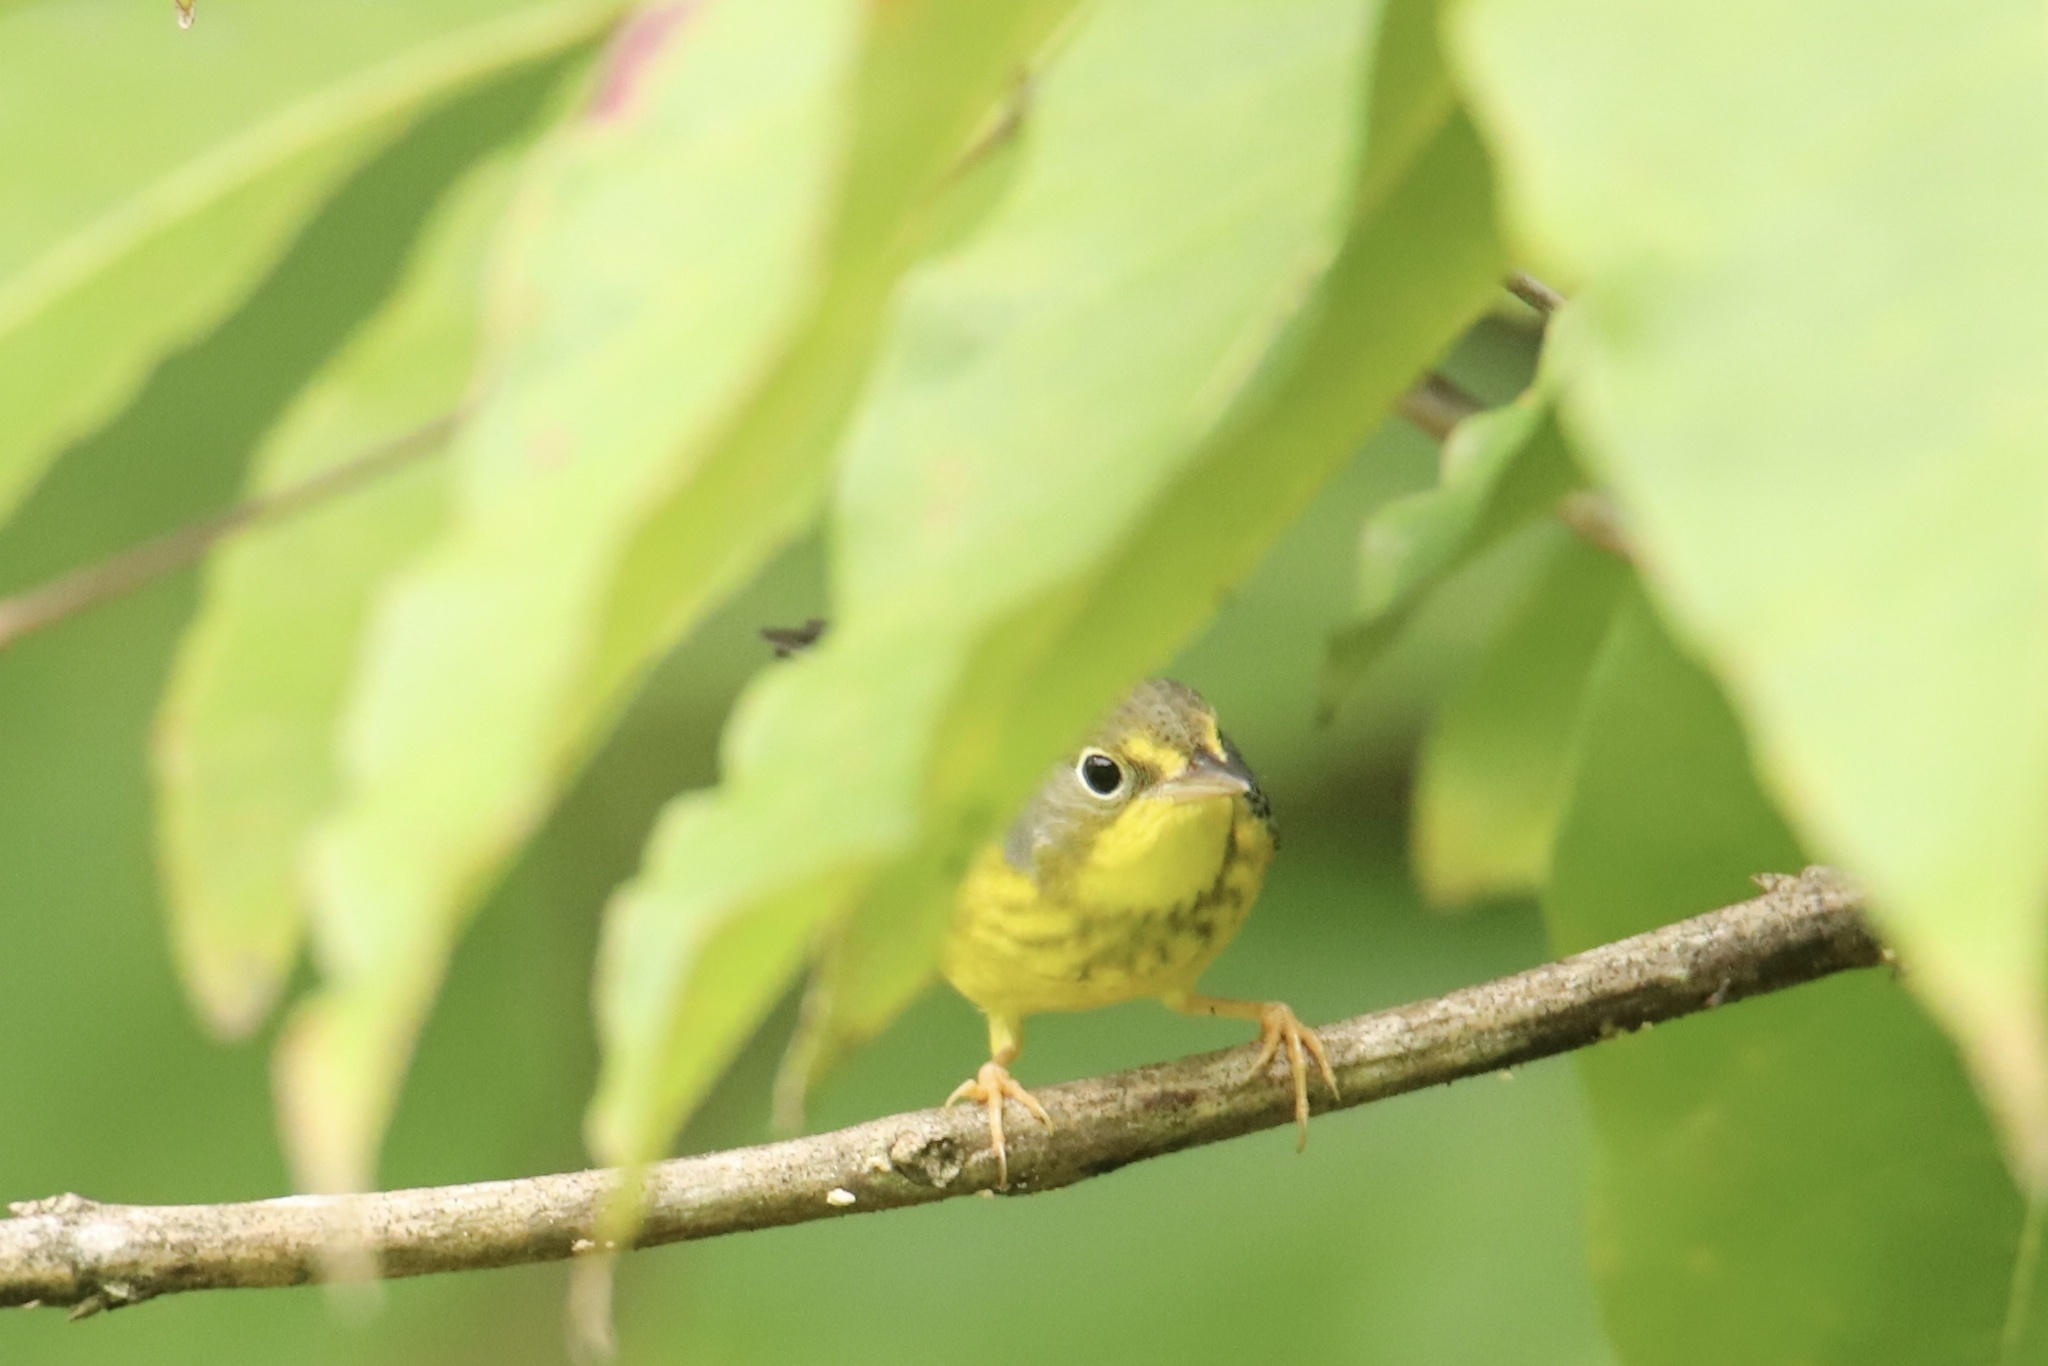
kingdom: Animalia
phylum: Chordata
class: Aves
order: Passeriformes
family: Parulidae
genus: Cardellina
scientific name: Cardellina canadensis
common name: Canada warbler
